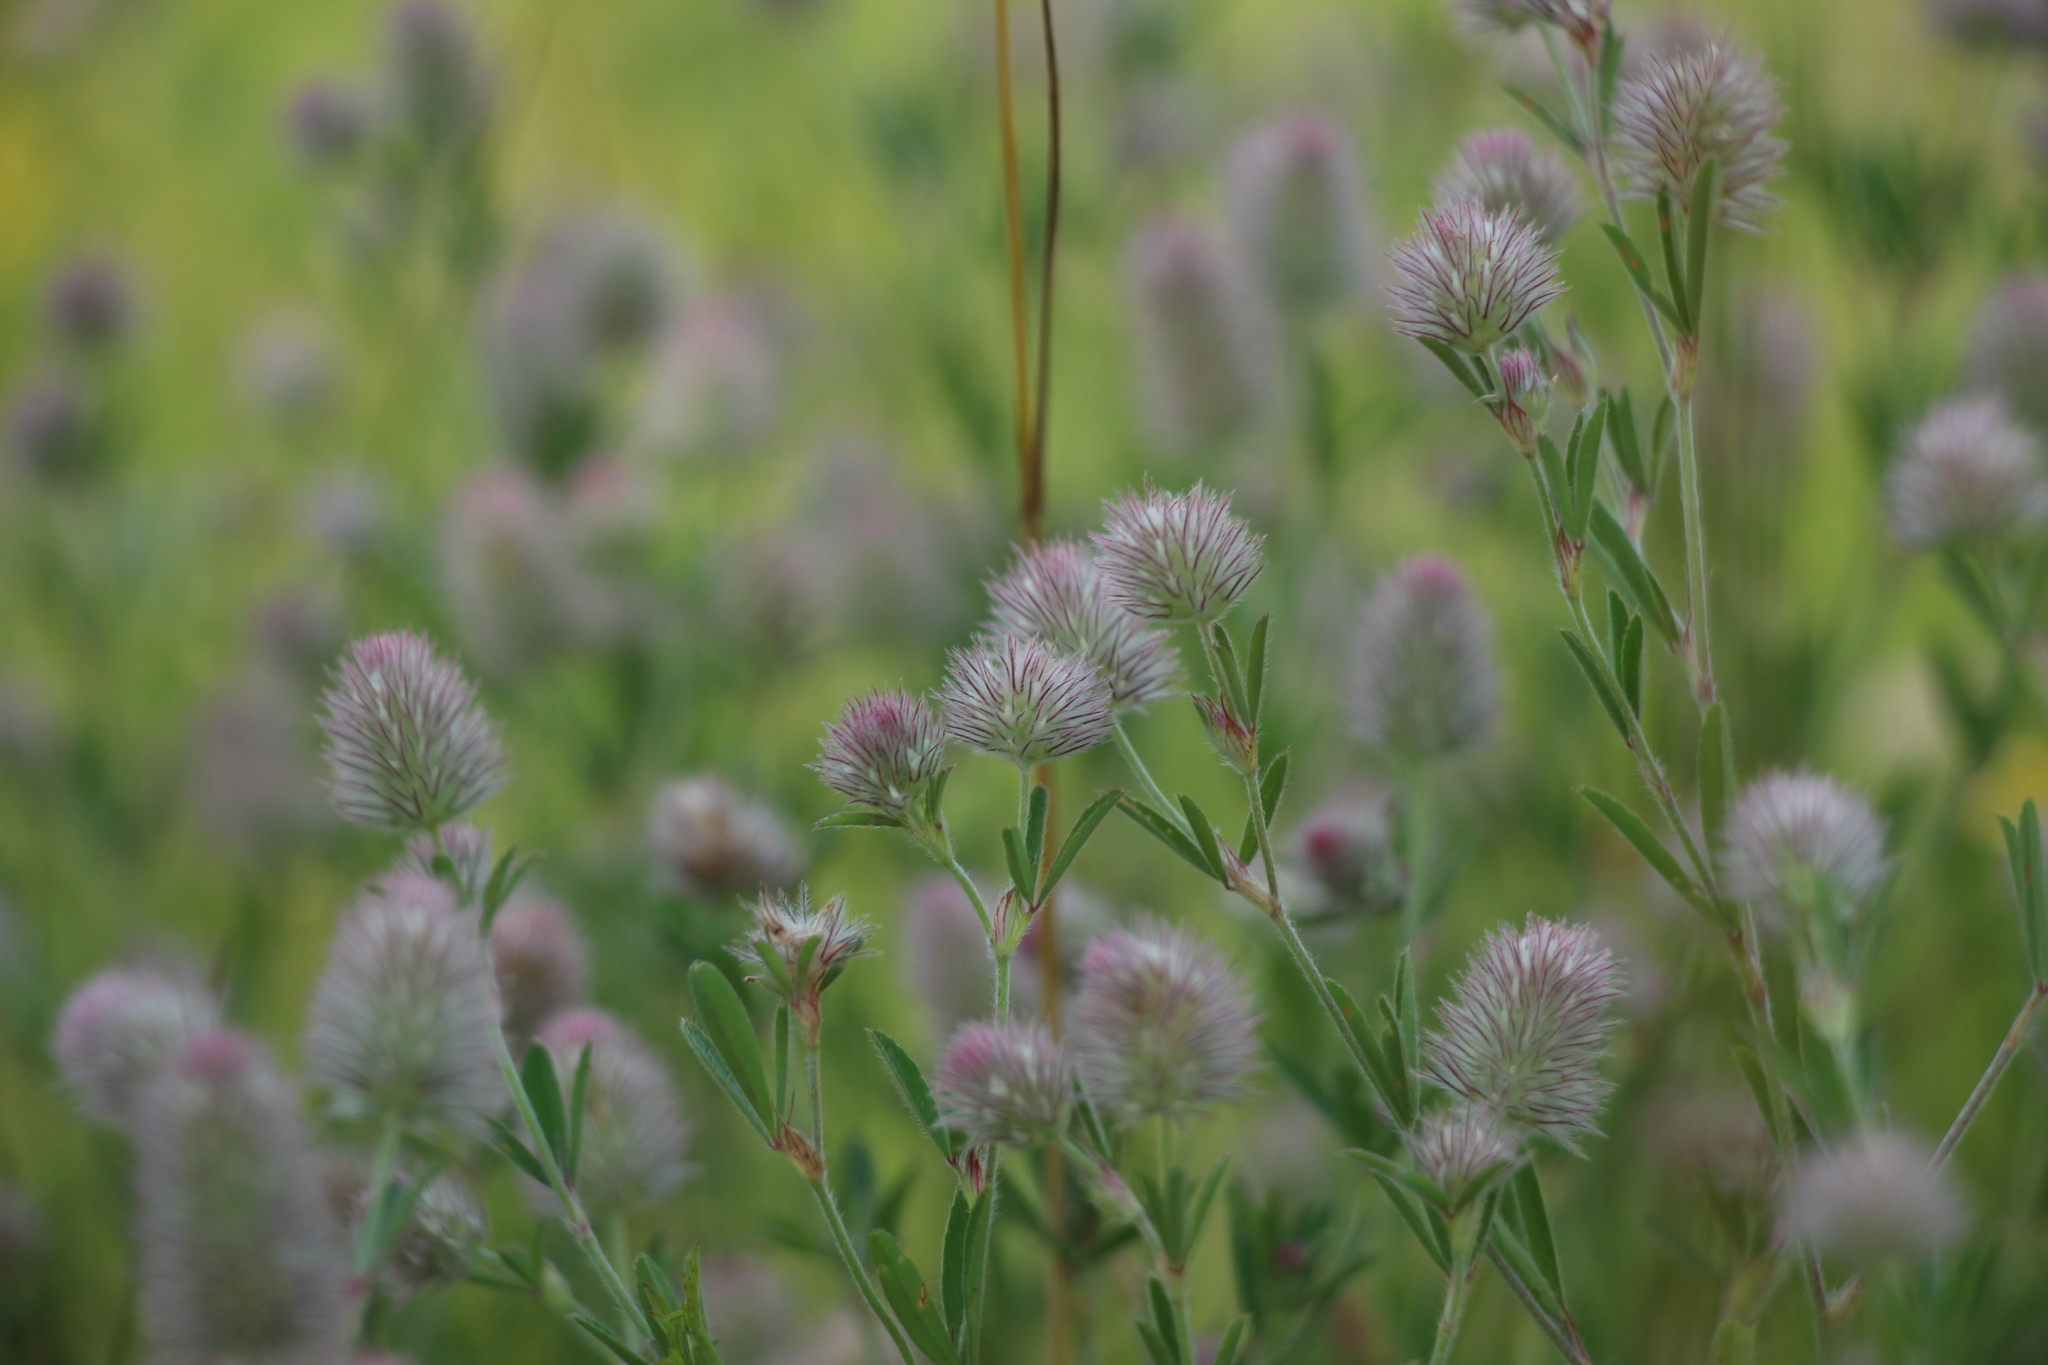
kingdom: Plantae
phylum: Tracheophyta
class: Magnoliopsida
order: Fabales
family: Fabaceae
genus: Trifolium
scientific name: Trifolium arvense
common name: Hare's-foot clover
